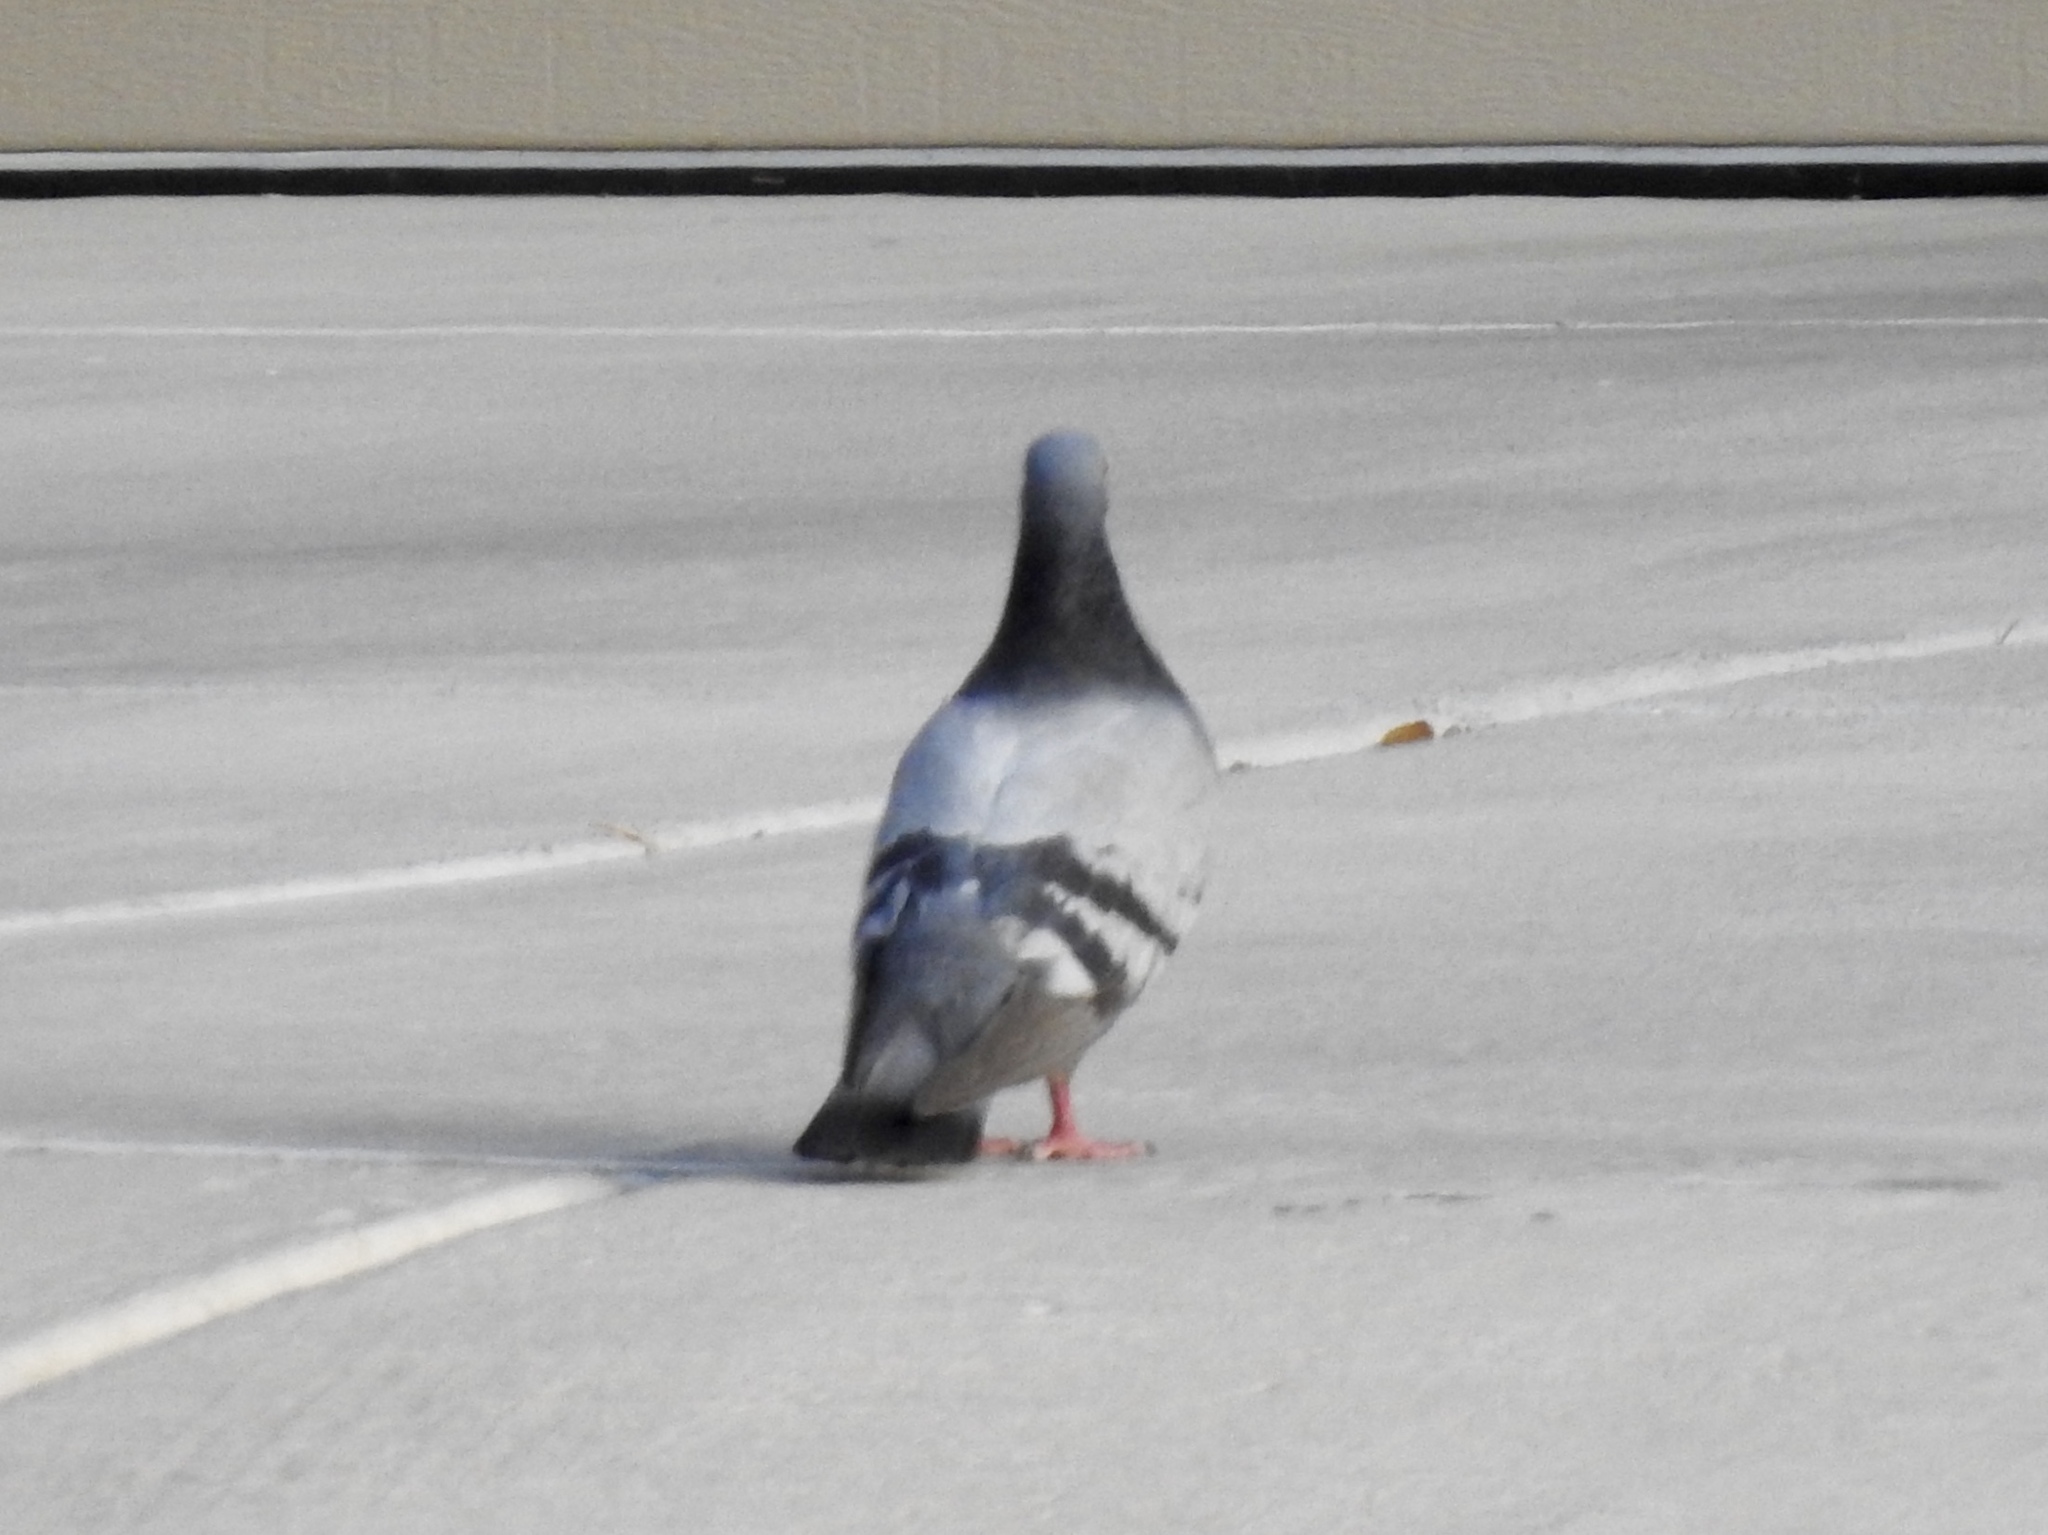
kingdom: Animalia
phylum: Chordata
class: Aves
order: Columbiformes
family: Columbidae
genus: Columba
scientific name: Columba livia
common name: Rock pigeon
